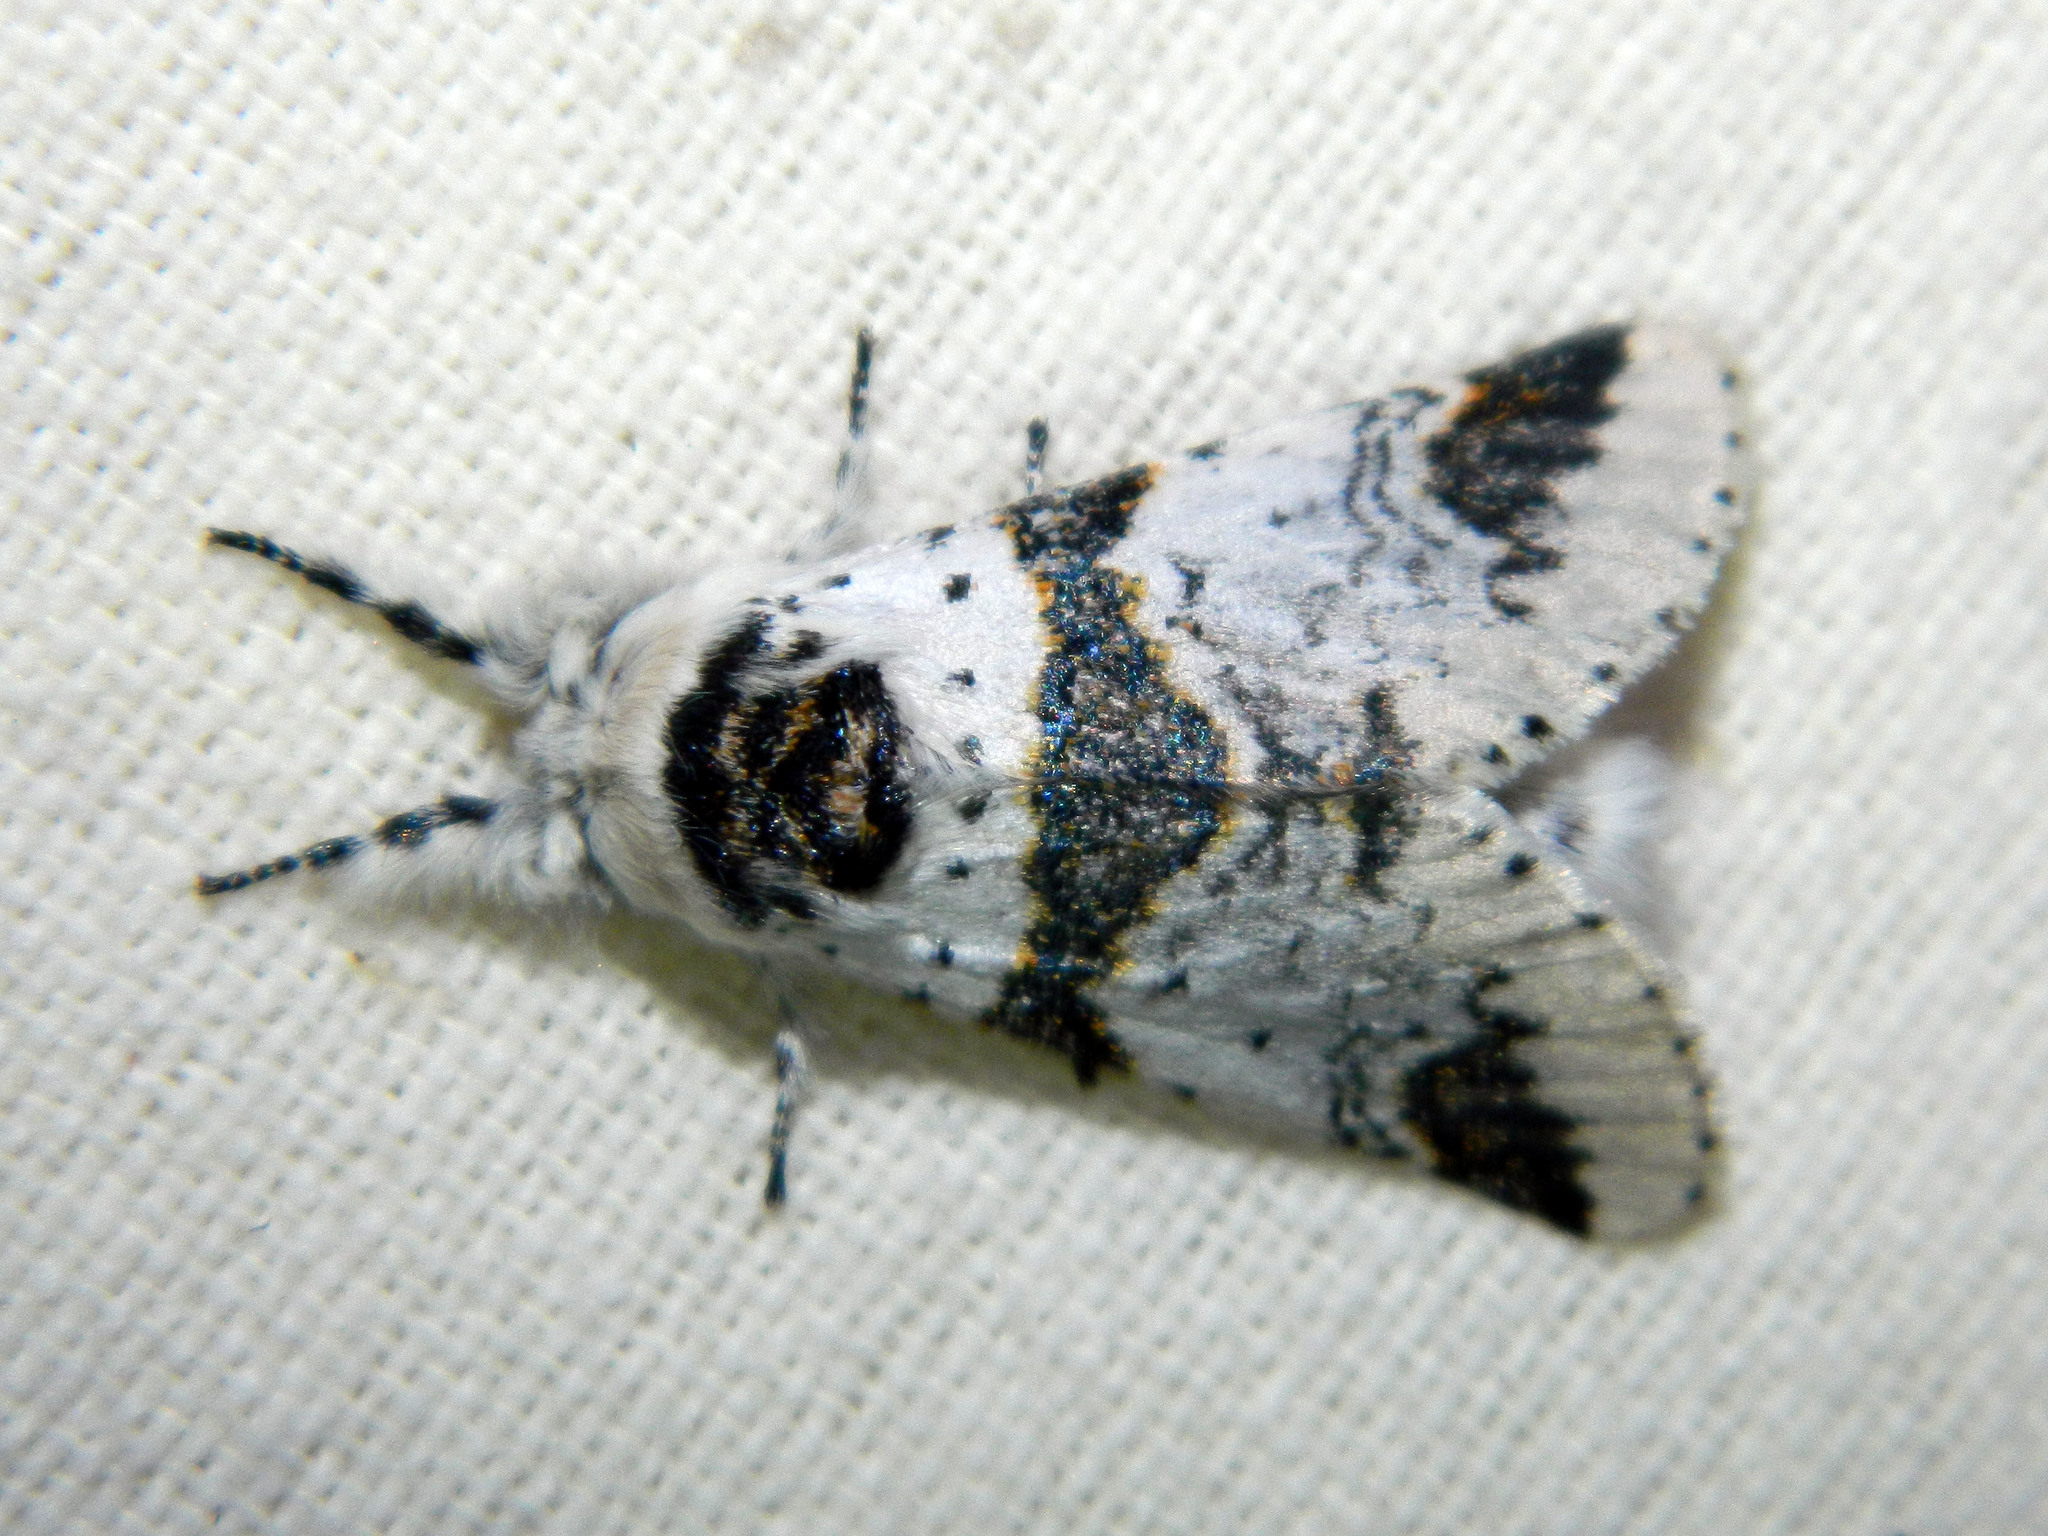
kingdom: Animalia
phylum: Arthropoda
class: Insecta
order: Lepidoptera
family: Notodontidae
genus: Furcula
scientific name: Furcula scolopendrina
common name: Zigzag furcula moth
